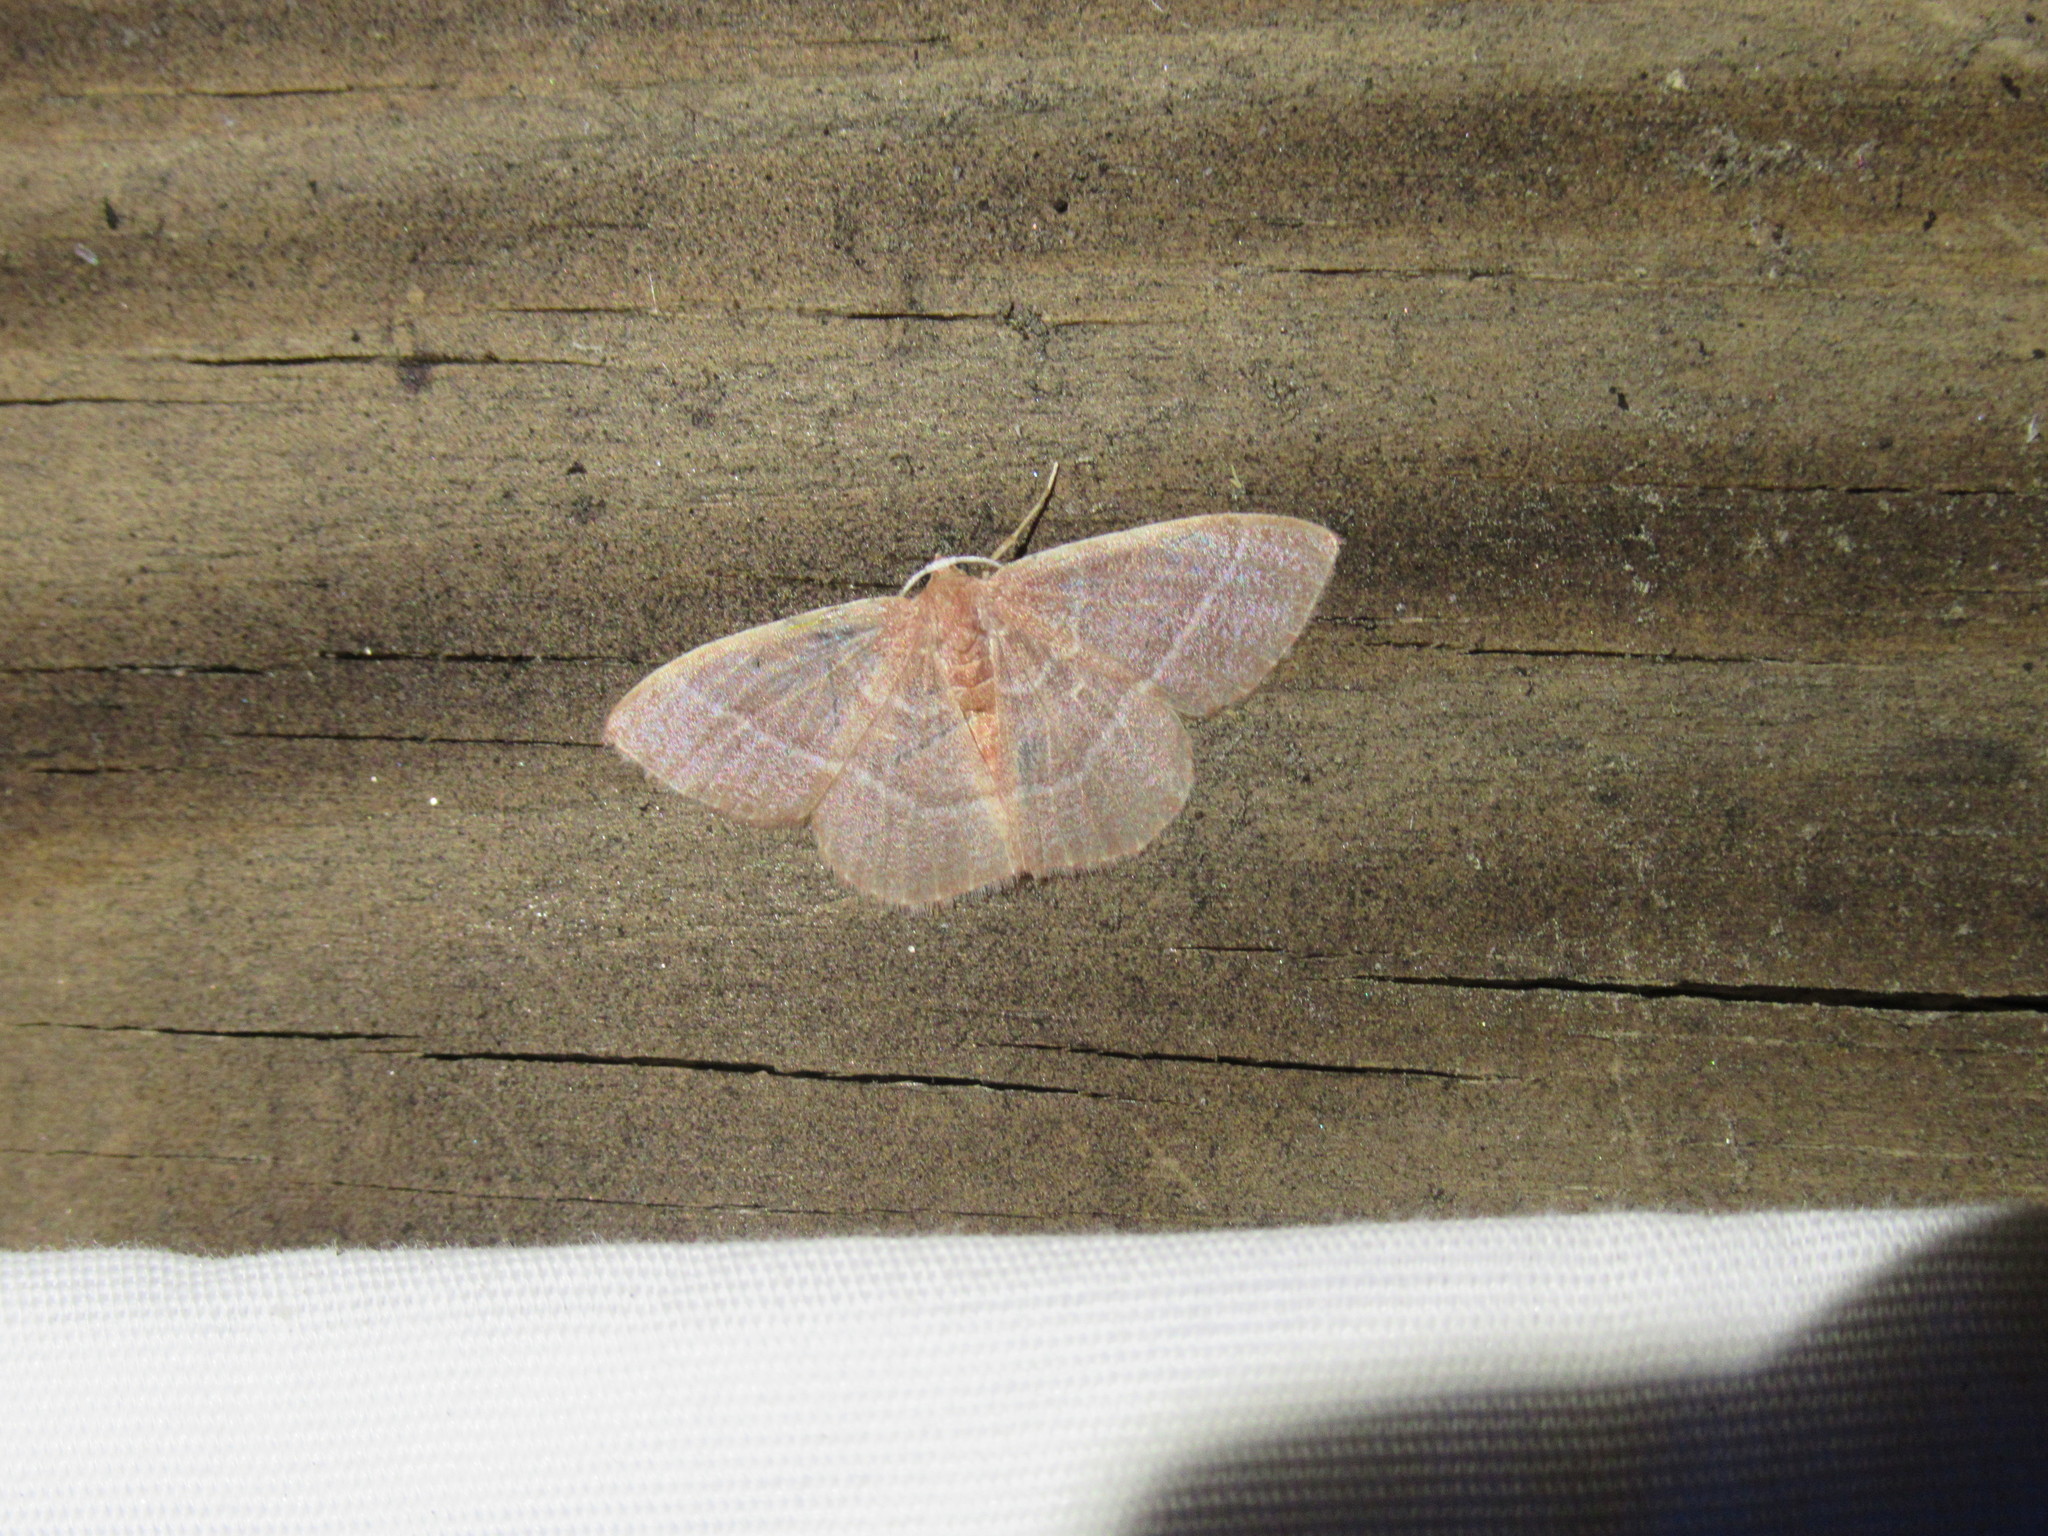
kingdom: Animalia
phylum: Arthropoda
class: Insecta
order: Lepidoptera
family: Geometridae
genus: Nemoria
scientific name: Nemoria bistriaria
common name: Red-fringed emerald
